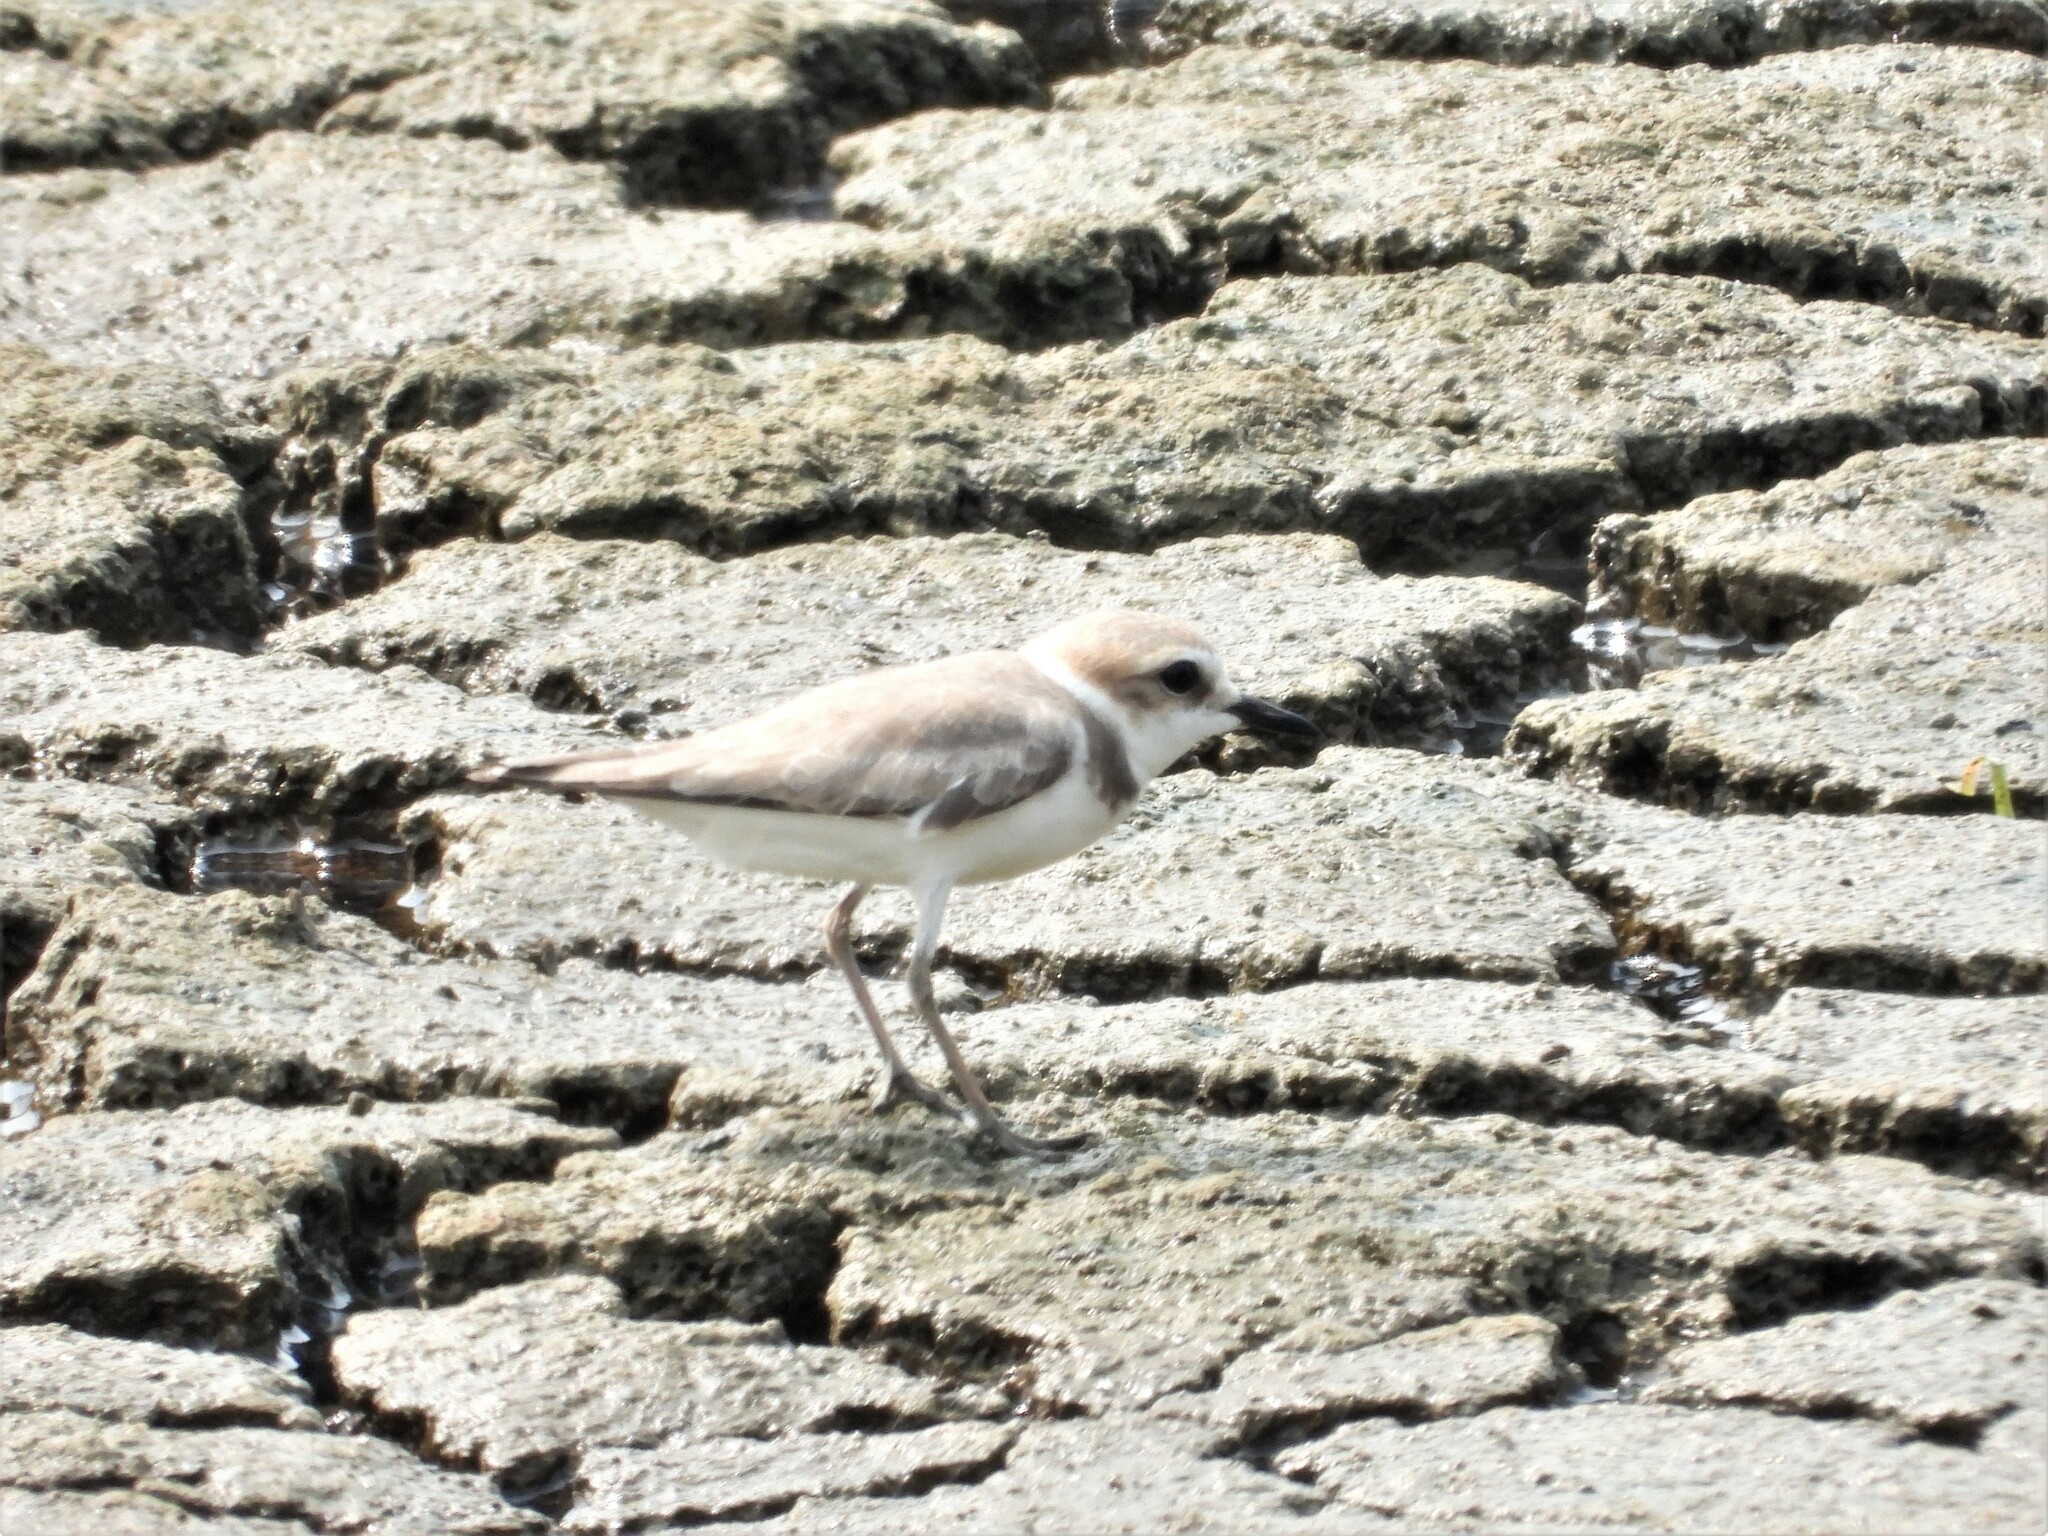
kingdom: Animalia
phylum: Chordata
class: Aves
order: Charadriiformes
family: Charadriidae
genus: Charadrius
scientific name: Charadrius alexandrinus
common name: Kentish plover
